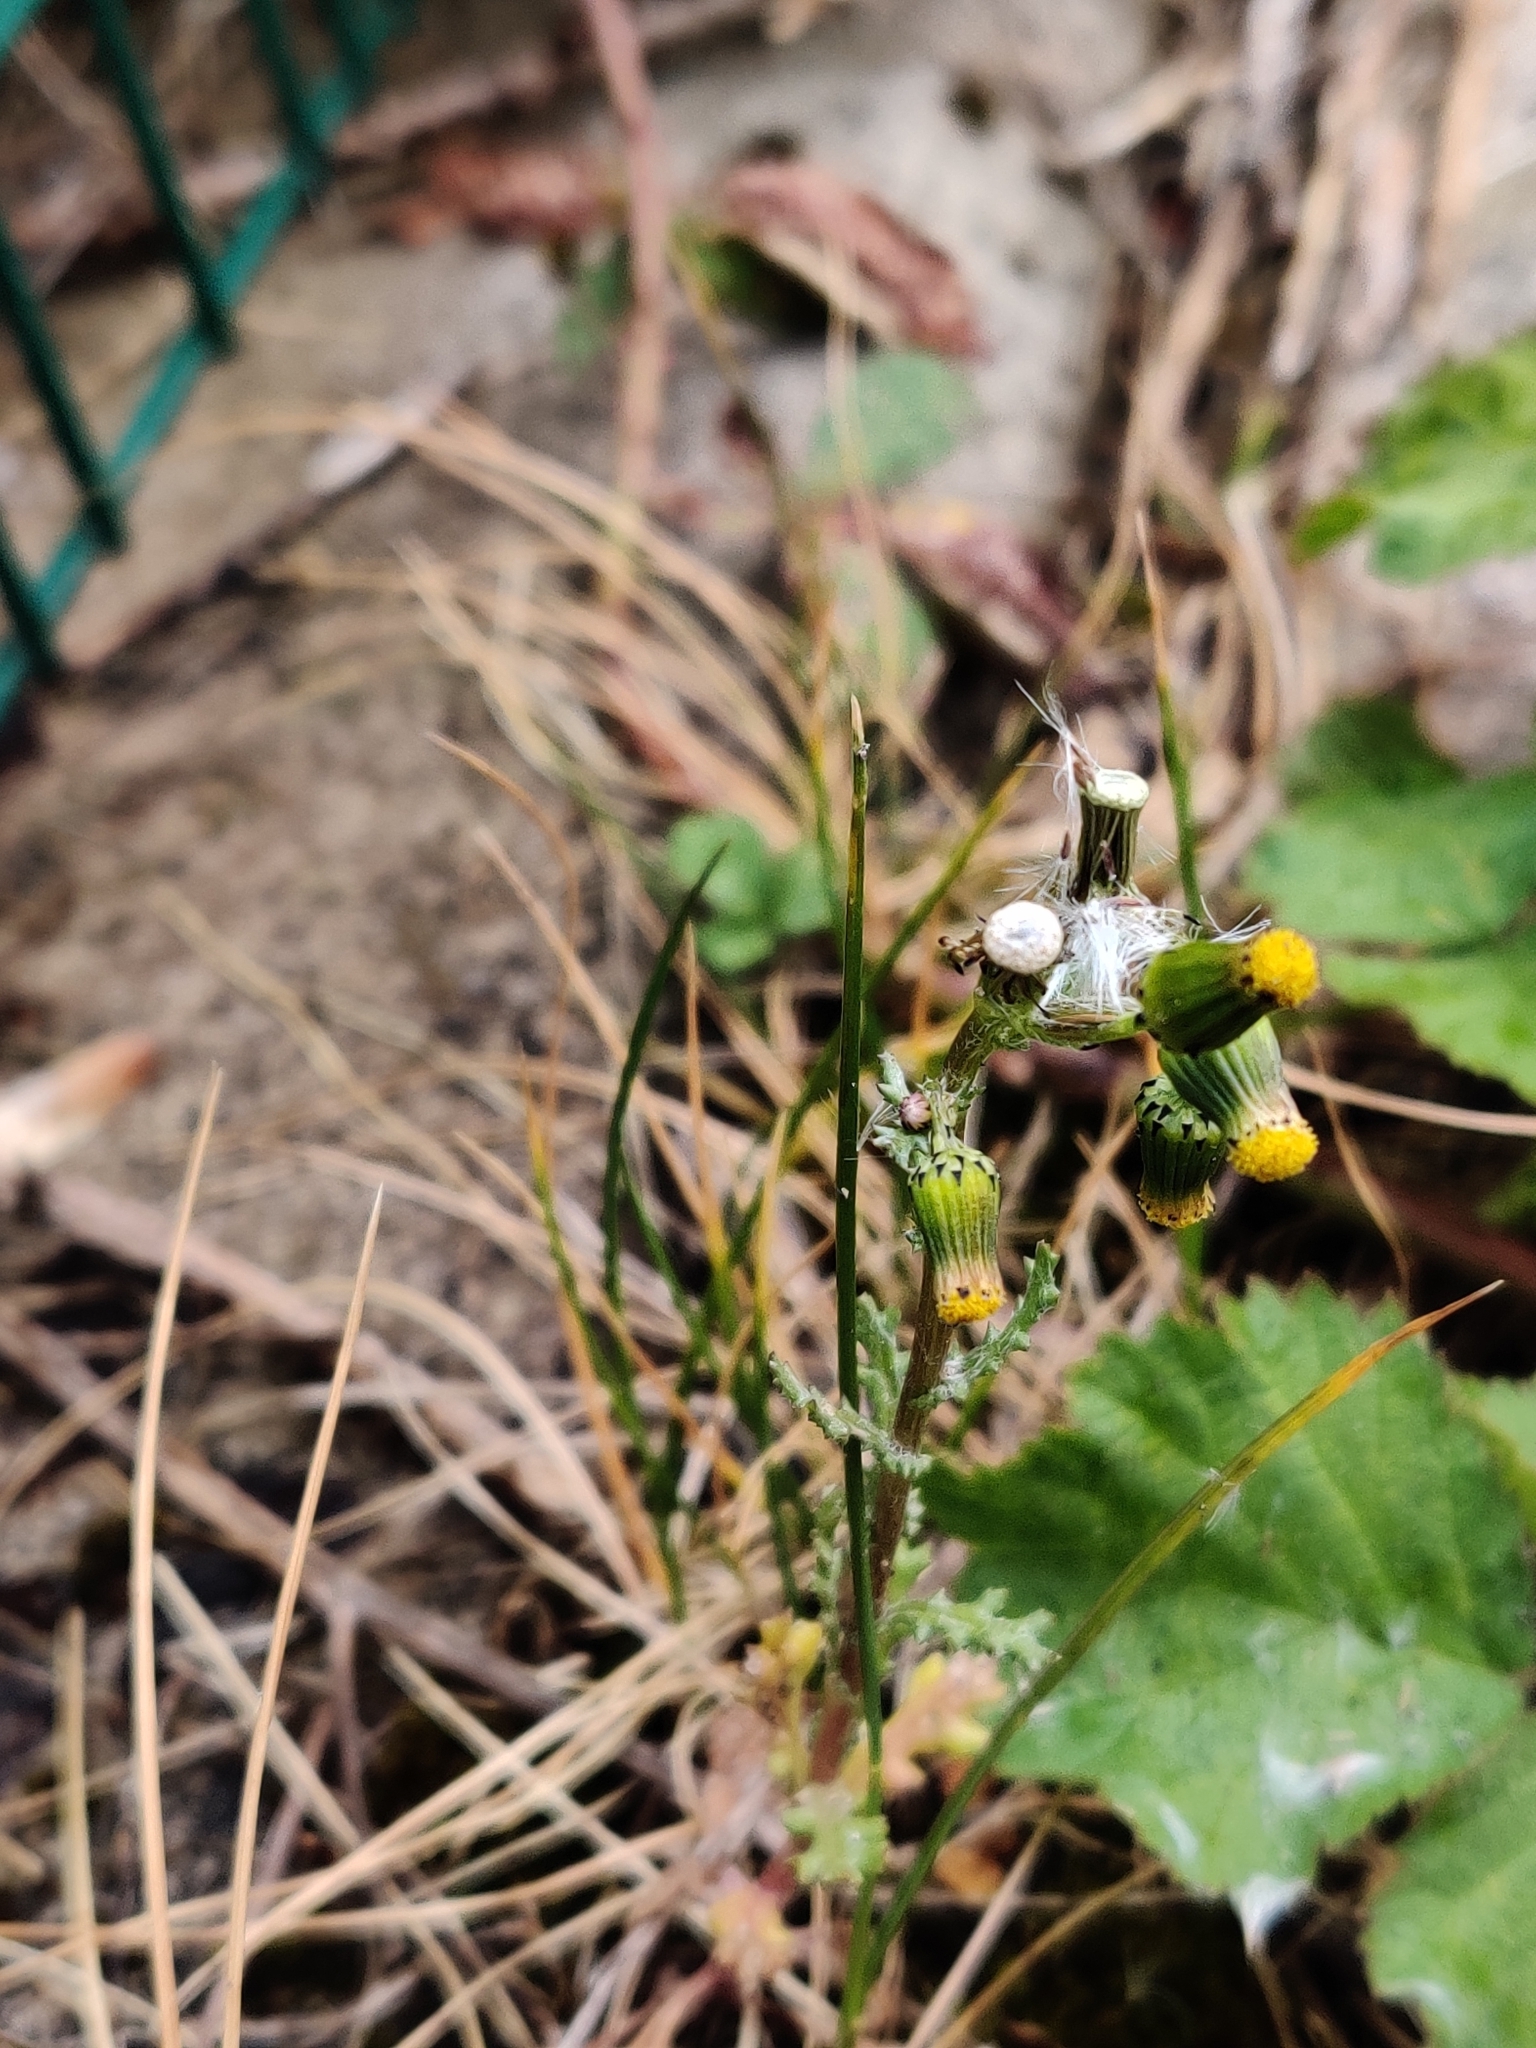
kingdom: Plantae
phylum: Tracheophyta
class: Magnoliopsida
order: Asterales
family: Asteraceae
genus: Senecio
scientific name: Senecio vulgaris
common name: Old-man-in-the-spring
